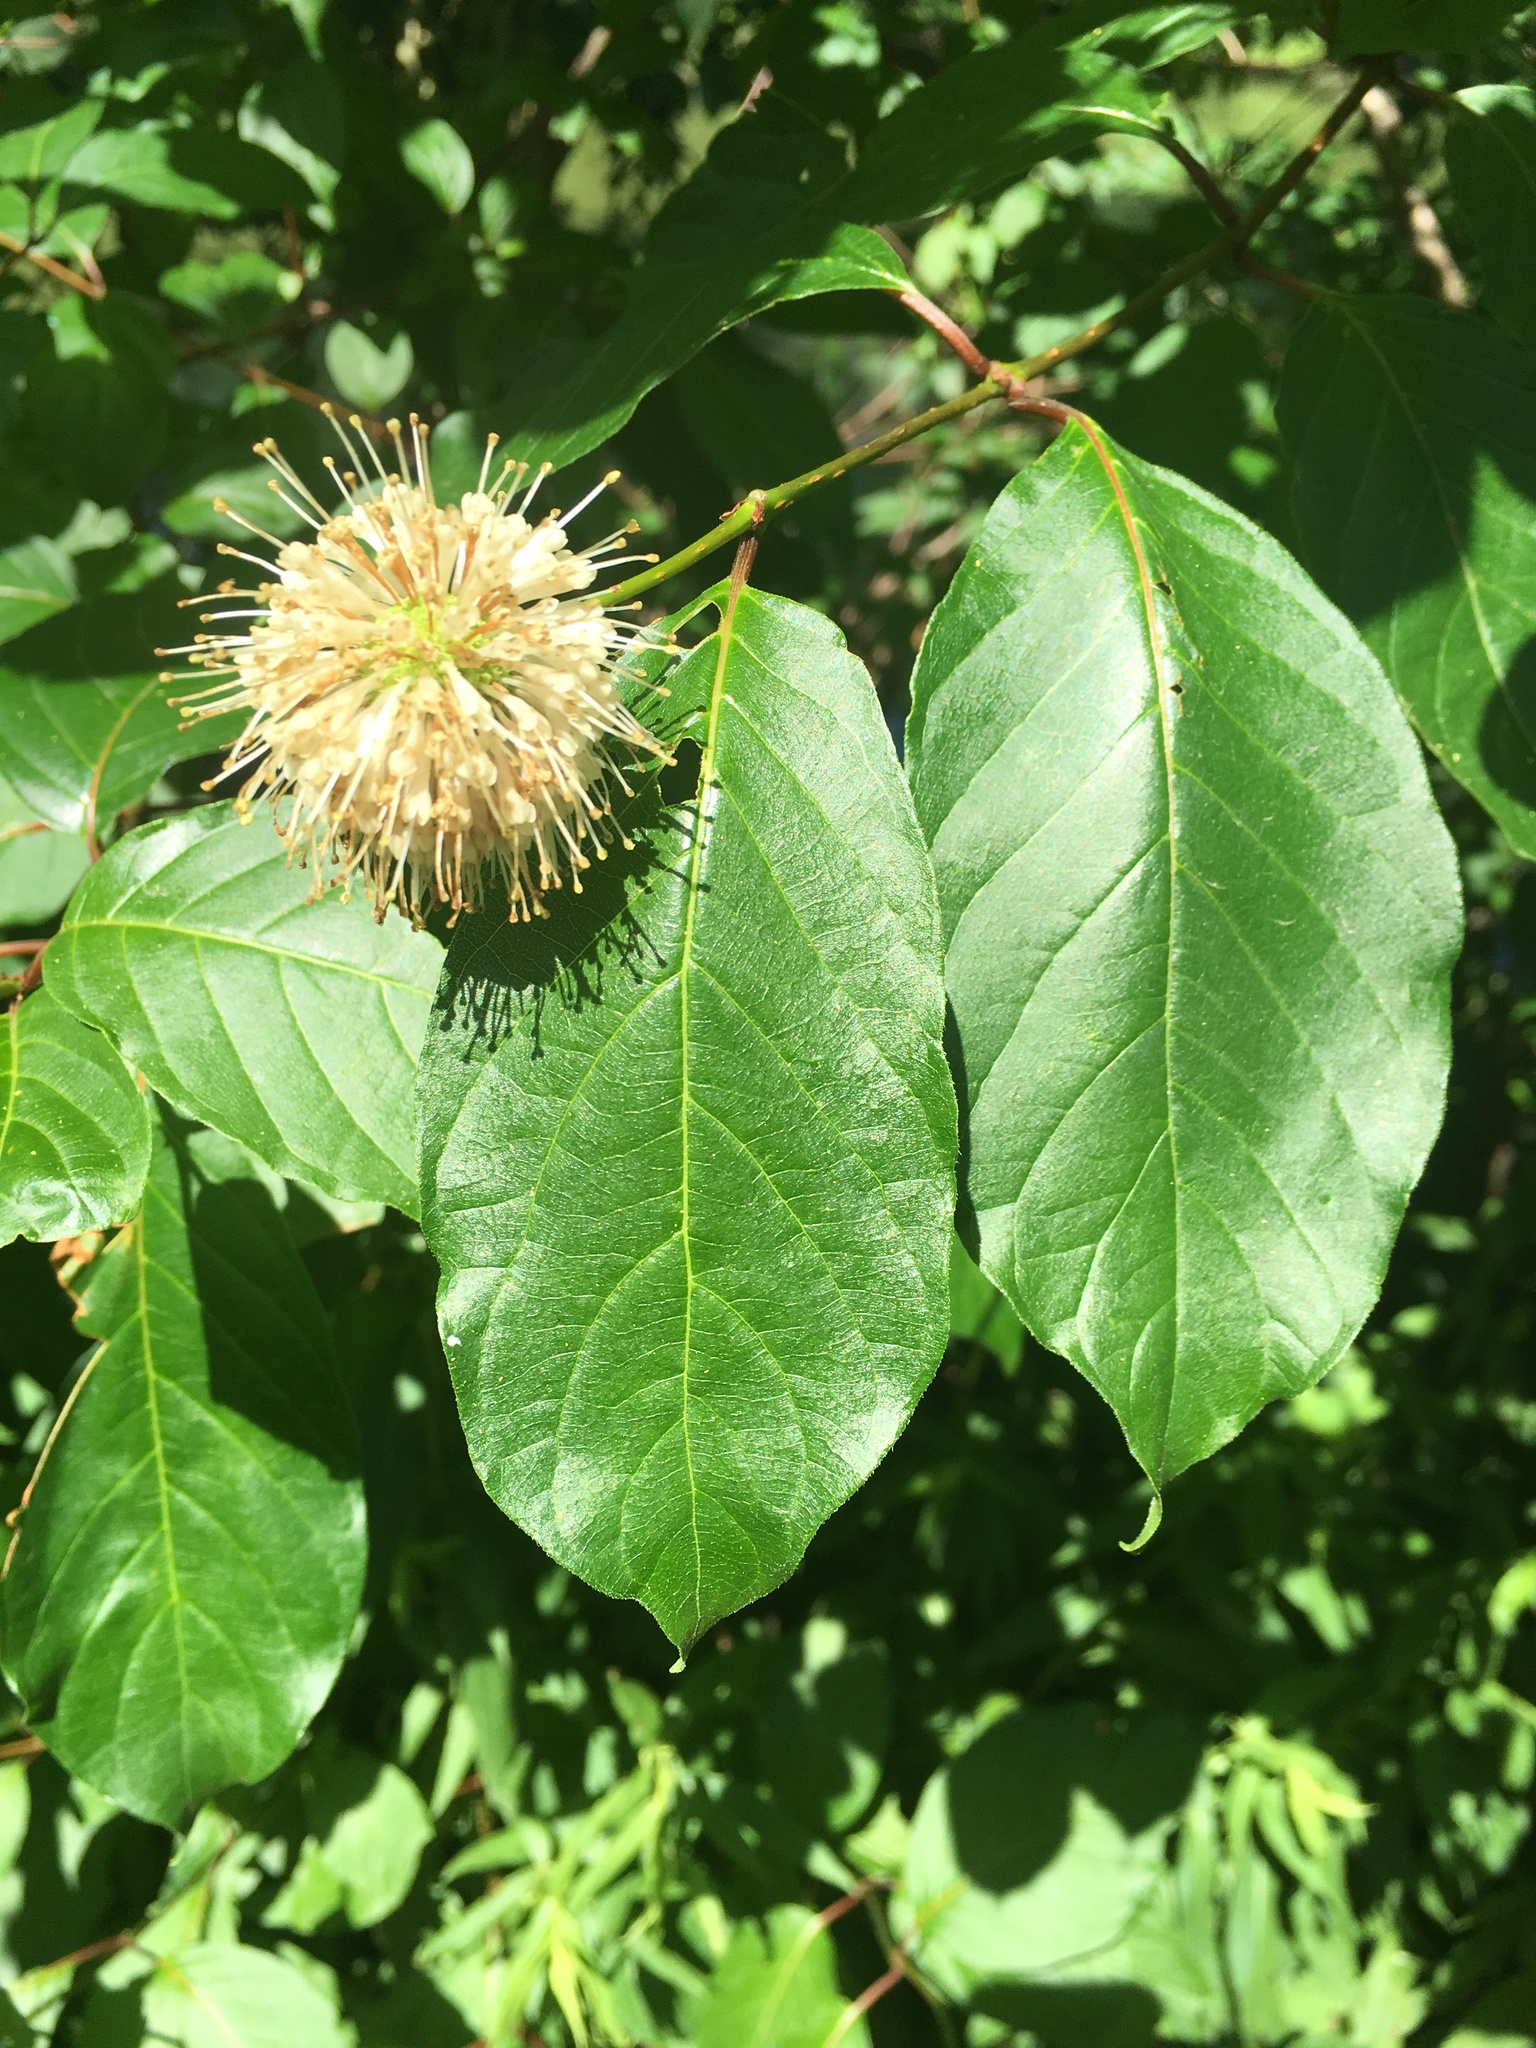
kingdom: Plantae
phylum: Tracheophyta
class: Magnoliopsida
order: Gentianales
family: Rubiaceae
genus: Cephalanthus
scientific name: Cephalanthus occidentalis
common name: Button-willow
